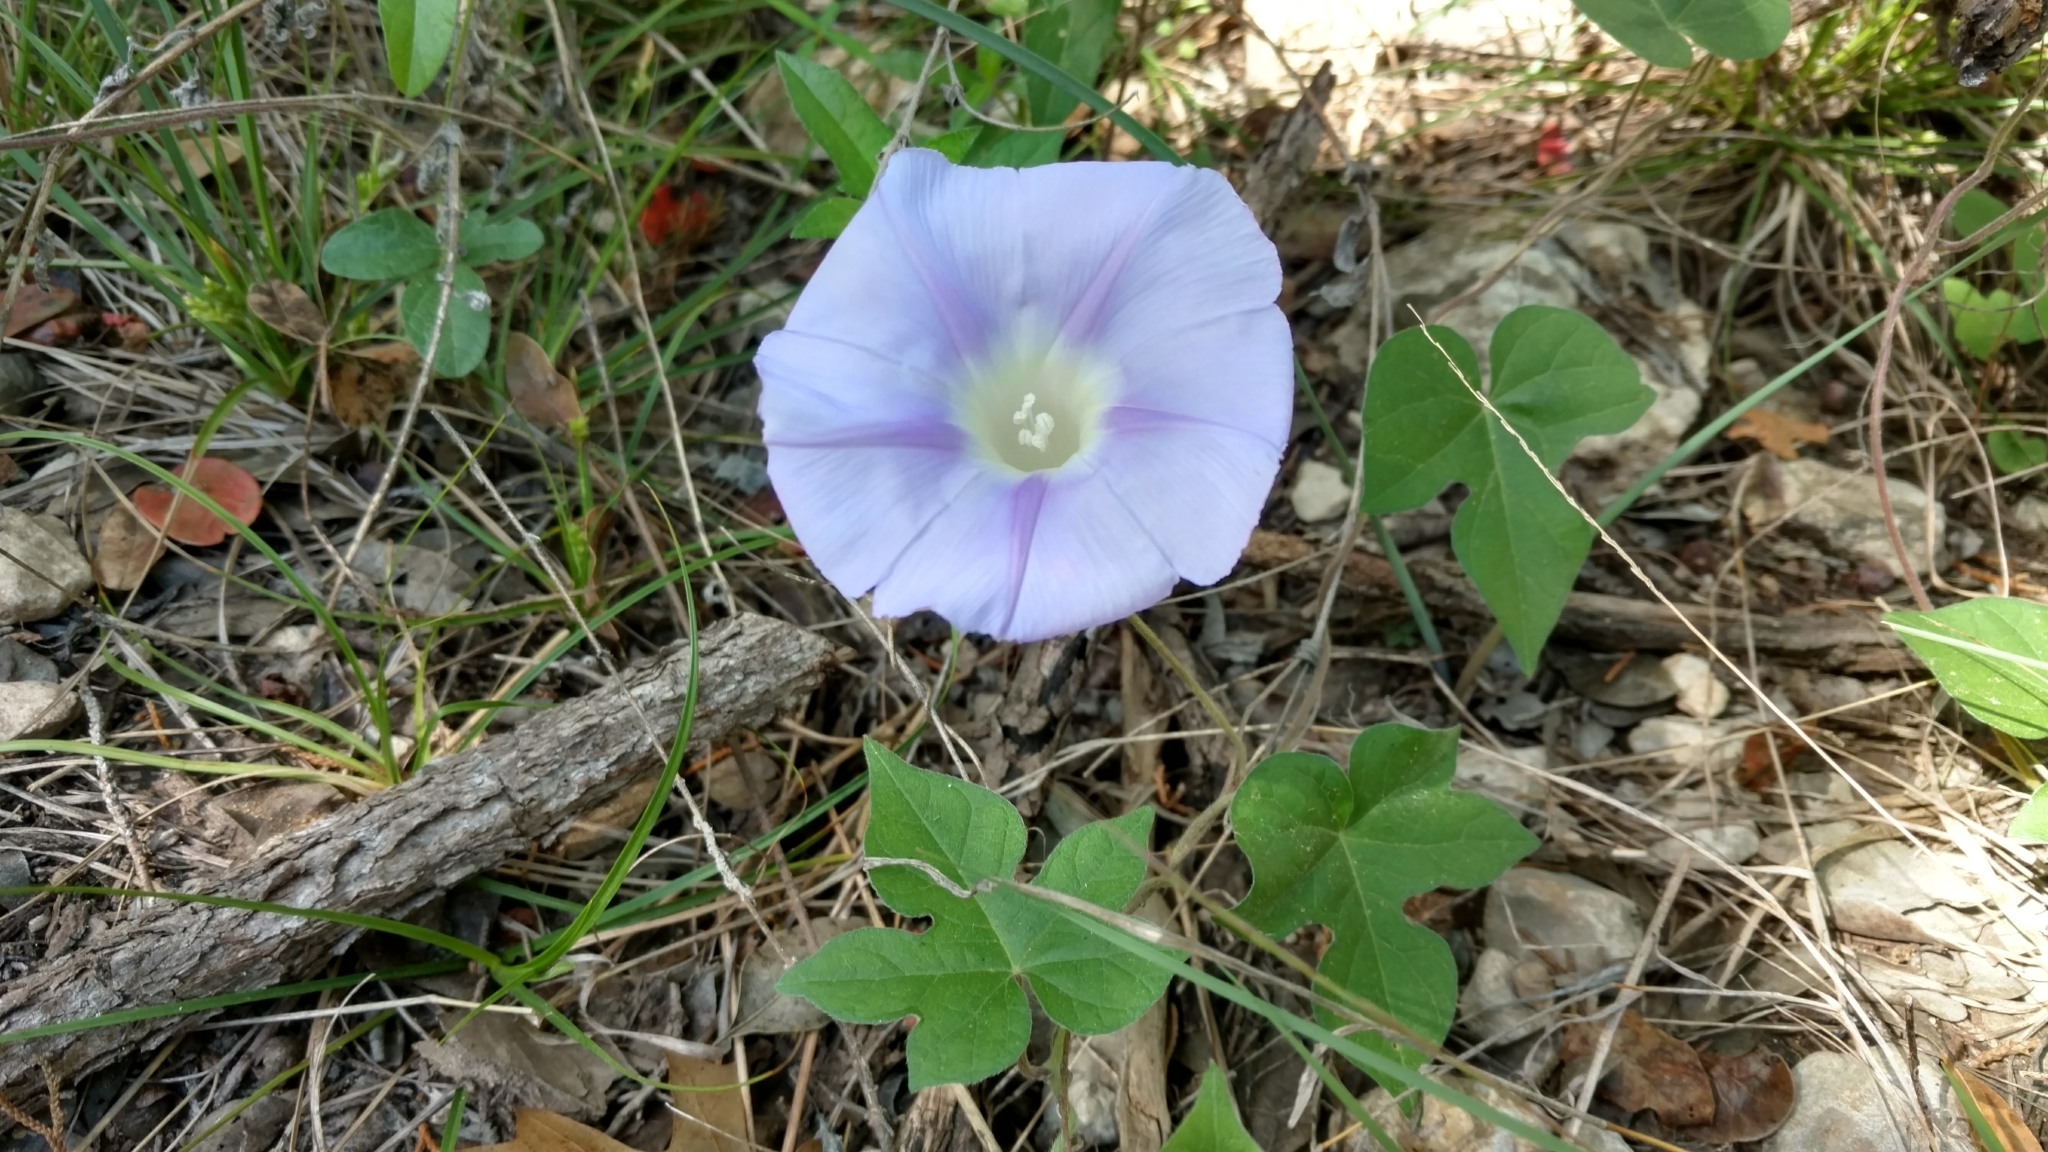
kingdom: Plantae
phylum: Tracheophyta
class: Magnoliopsida
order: Solanales
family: Convolvulaceae
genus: Ipomoea
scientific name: Ipomoea lindheimeri
